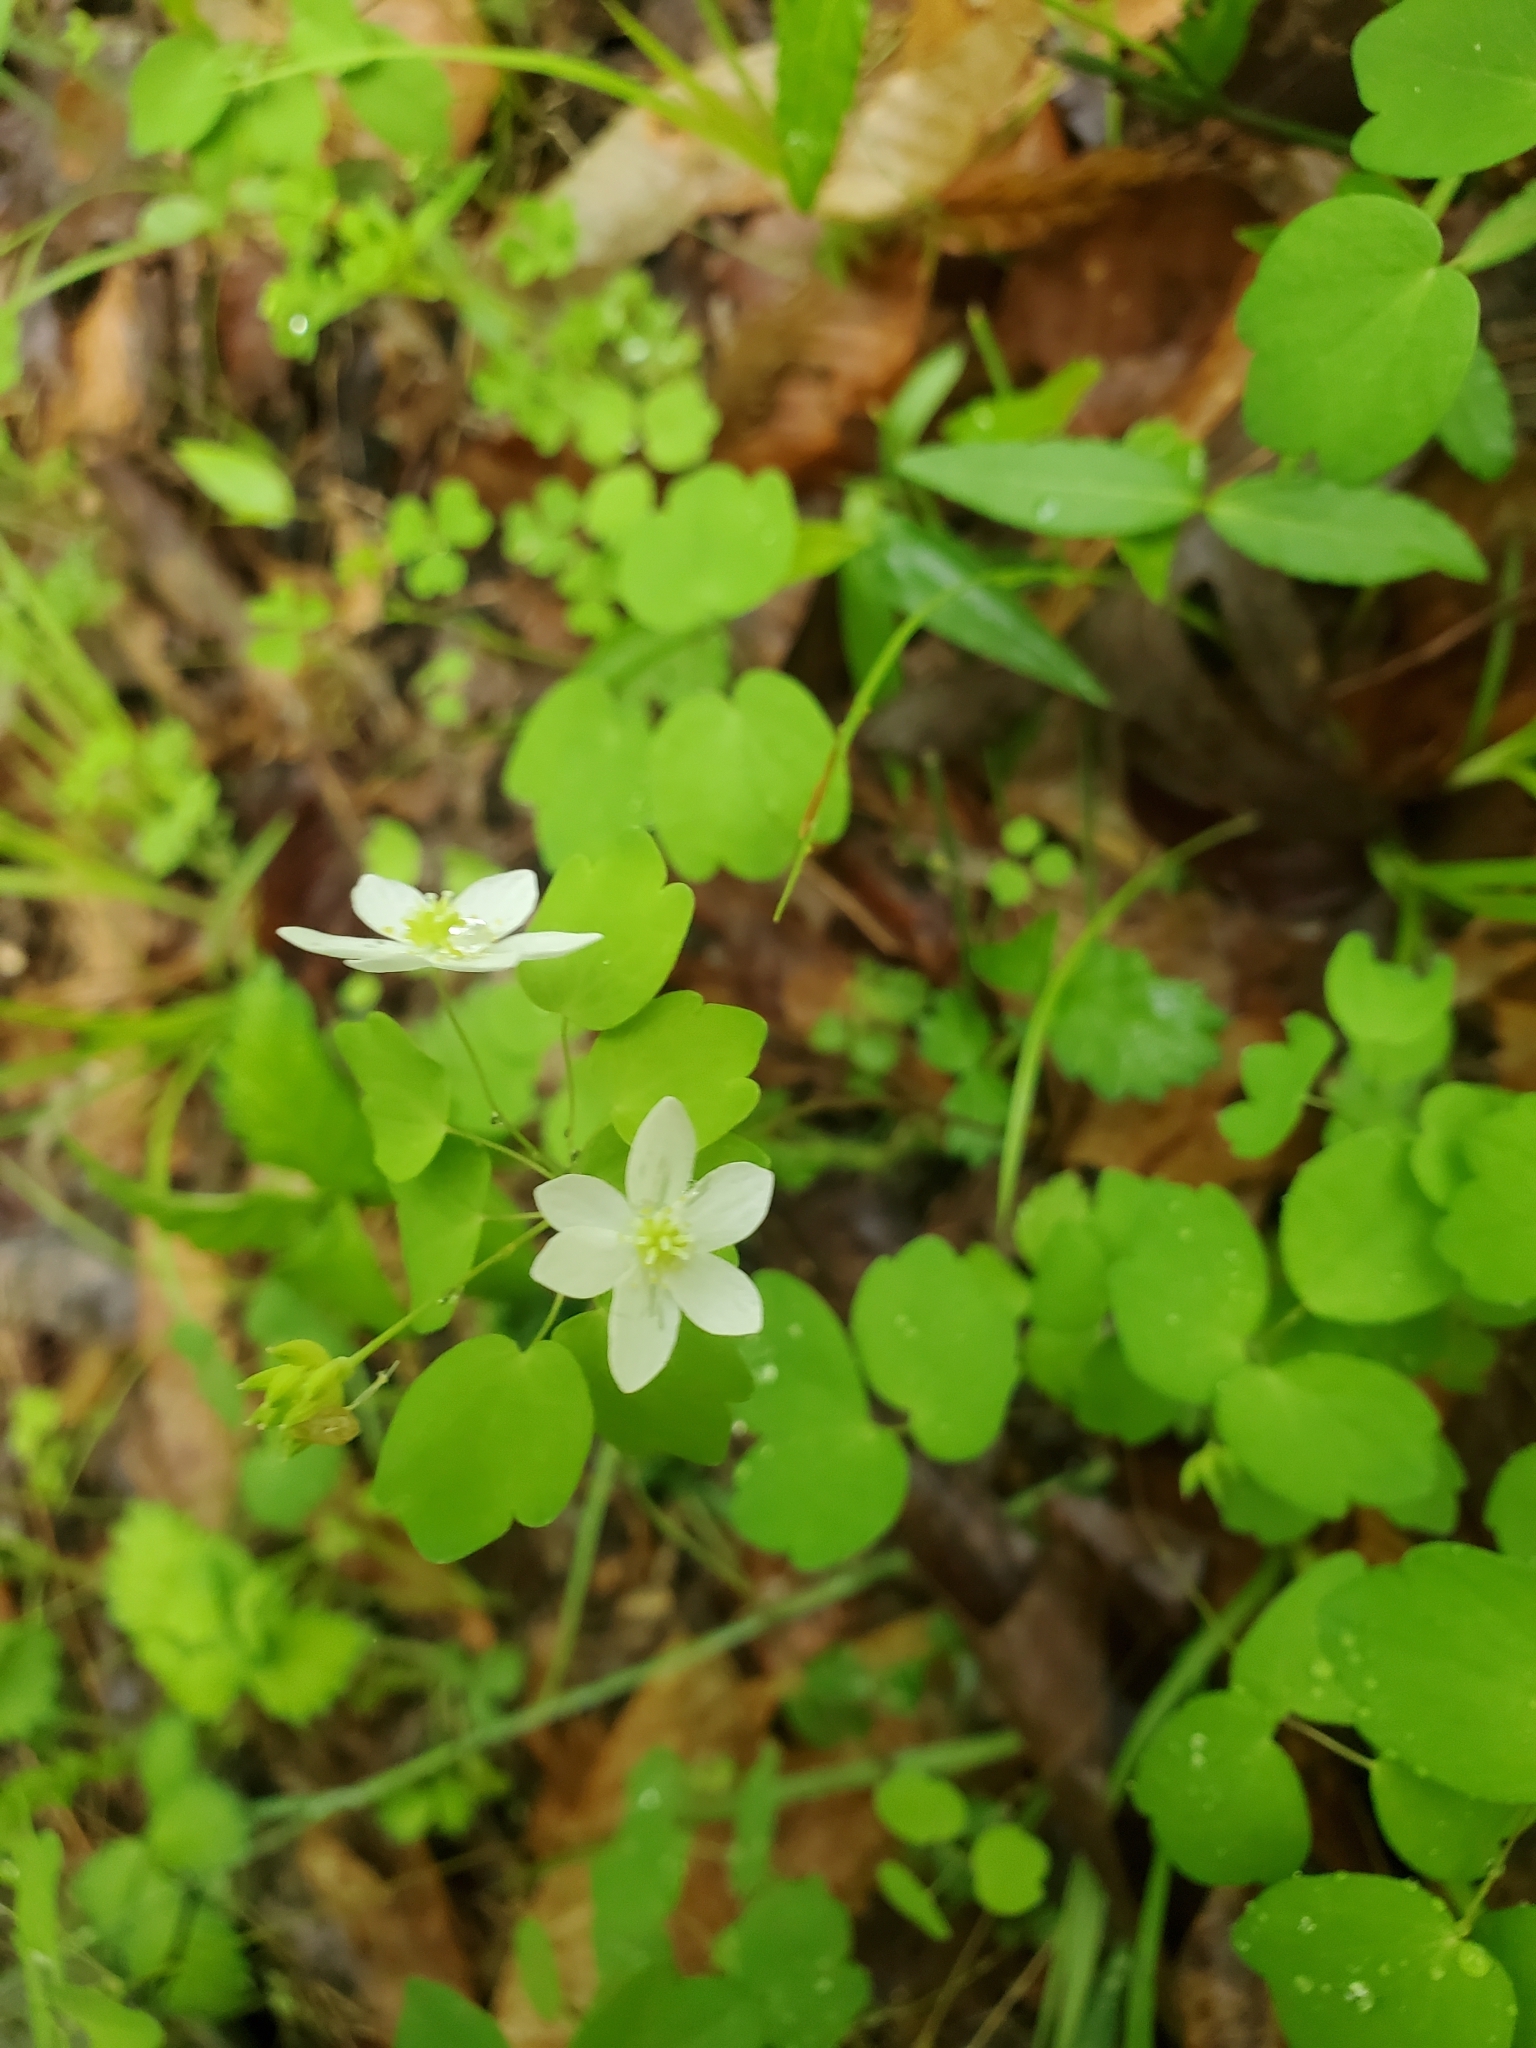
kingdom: Plantae
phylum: Tracheophyta
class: Magnoliopsida
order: Ranunculales
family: Ranunculaceae
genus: Thalictrum
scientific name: Thalictrum thalictroides
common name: Rue-anemone
